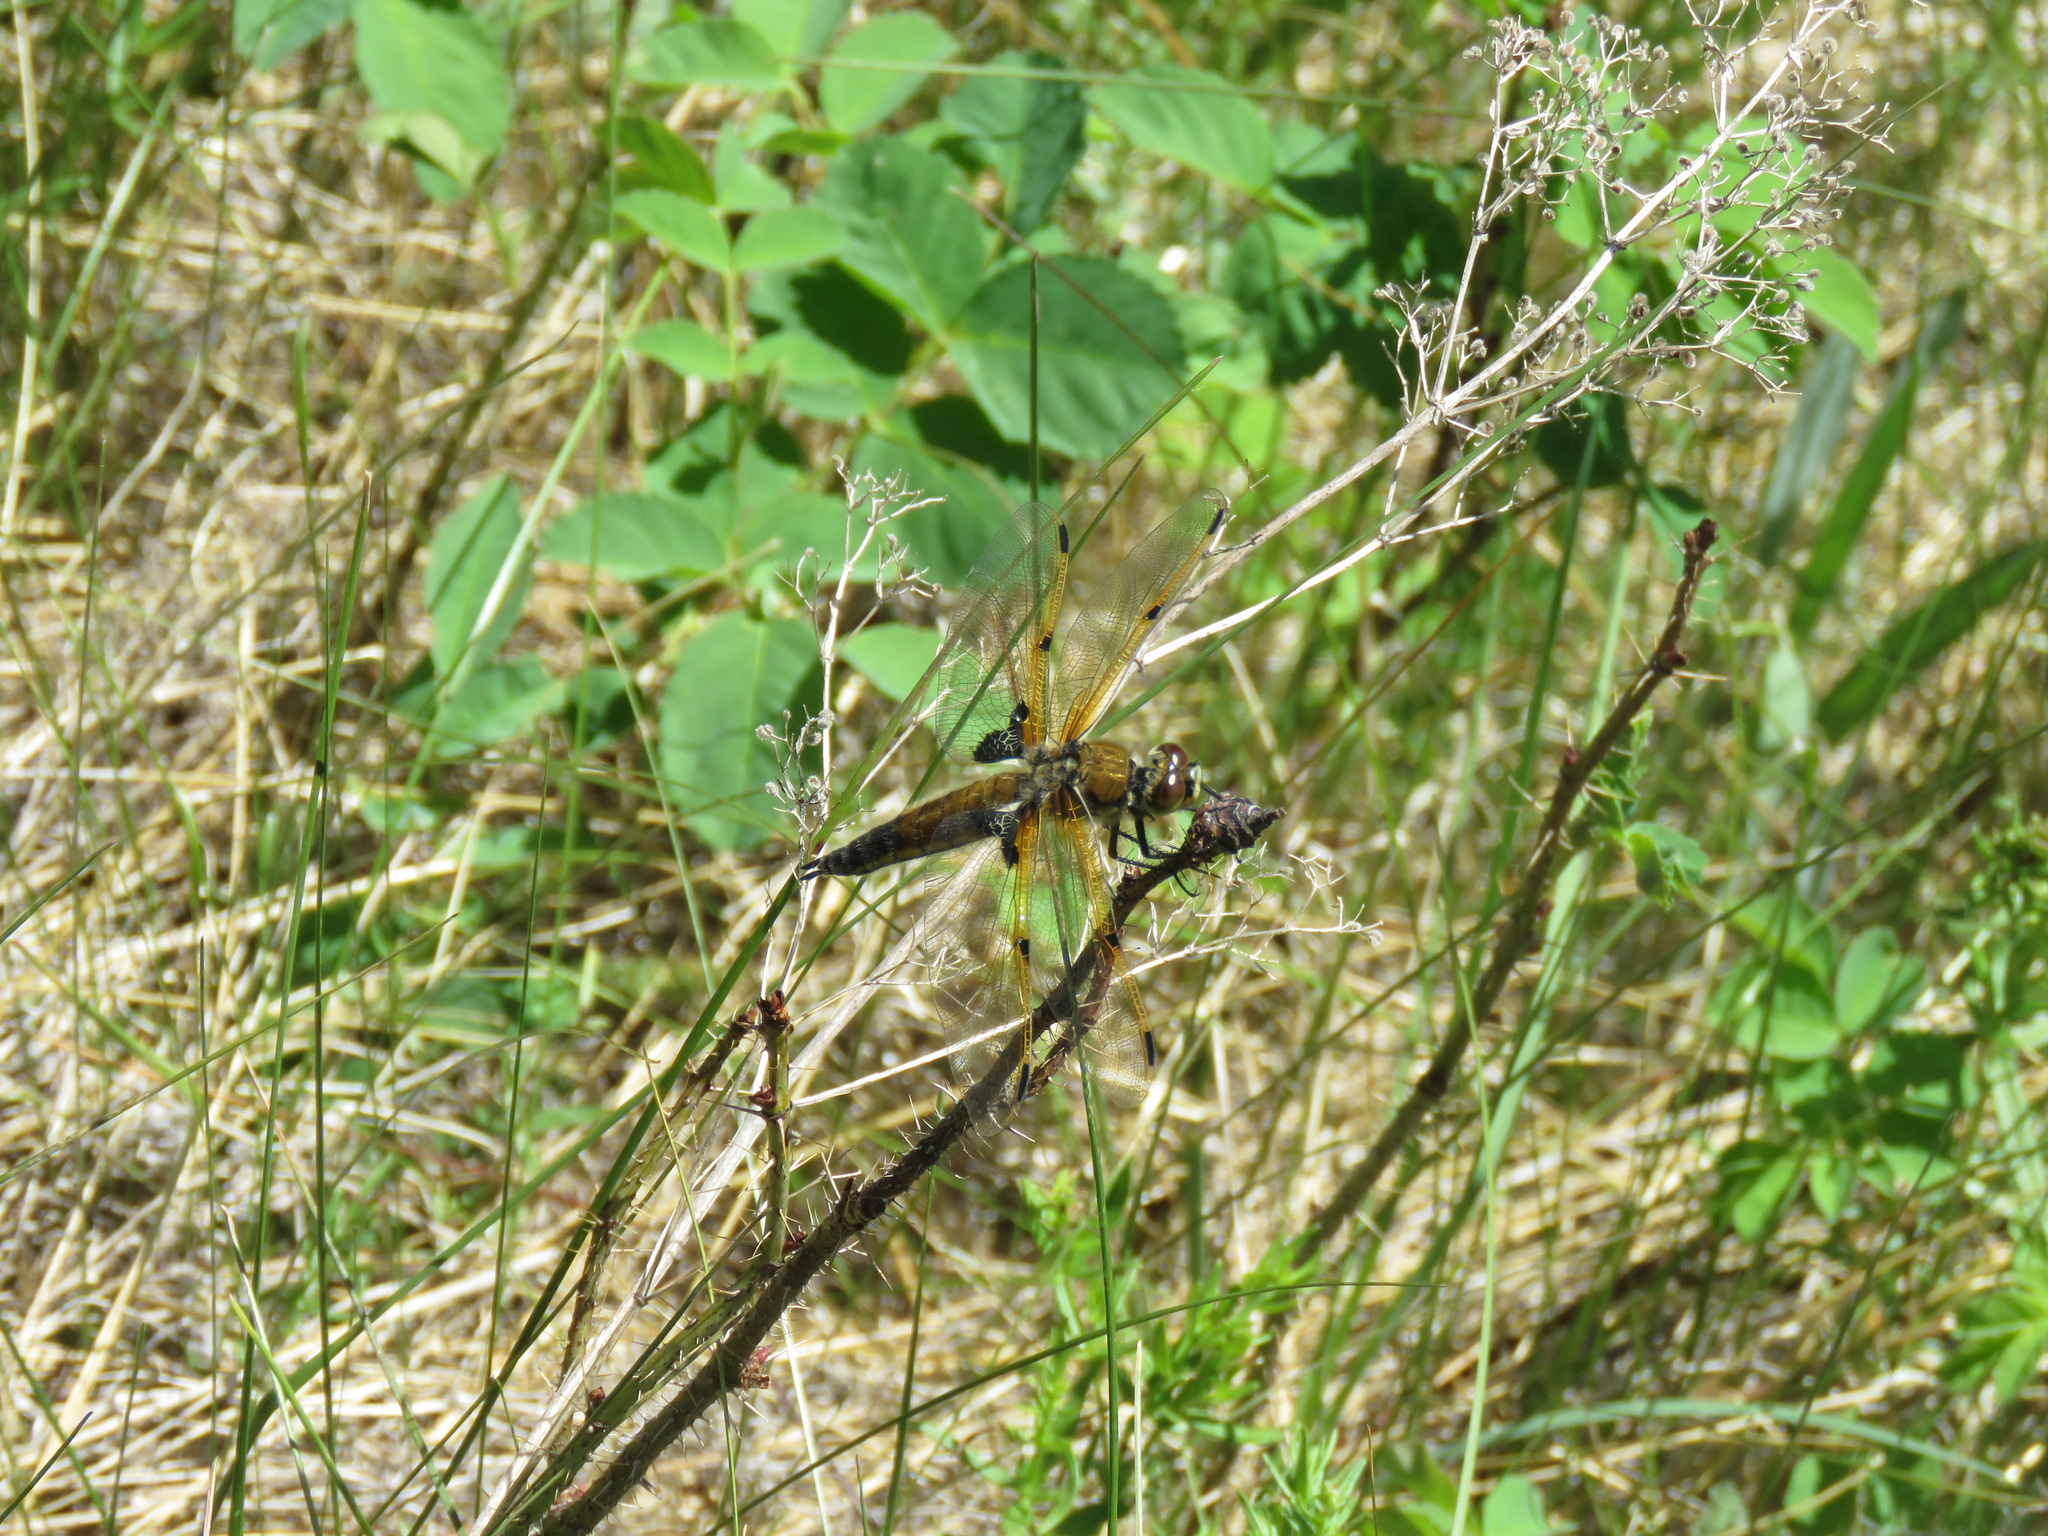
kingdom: Animalia
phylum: Arthropoda
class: Insecta
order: Odonata
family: Libellulidae
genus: Libellula
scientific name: Libellula quadrimaculata
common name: Four-spotted chaser
